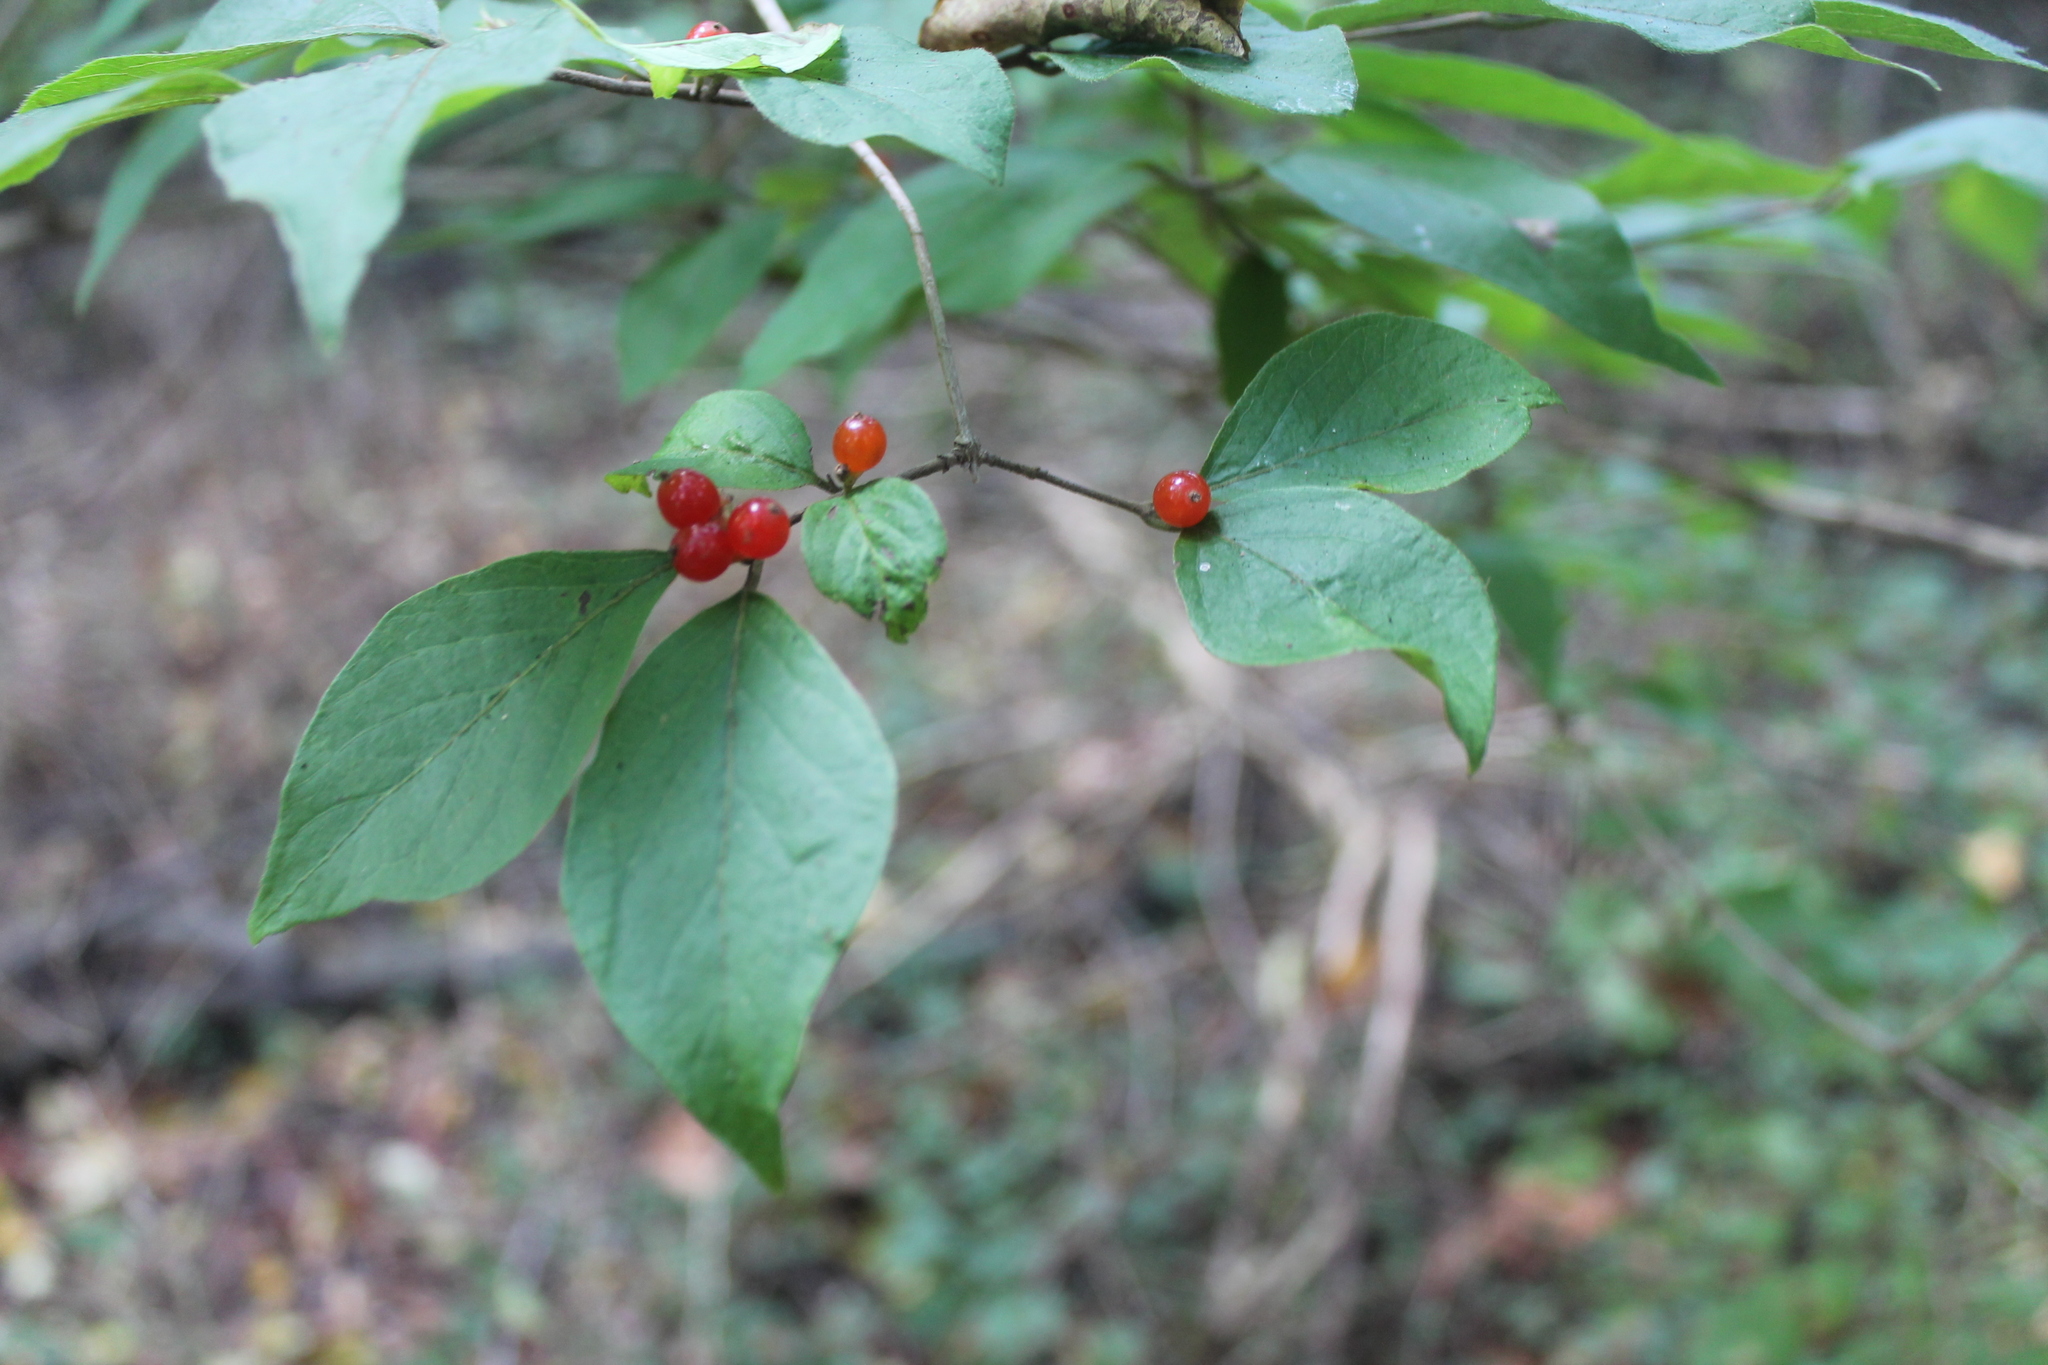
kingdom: Plantae
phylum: Tracheophyta
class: Magnoliopsida
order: Dipsacales
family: Caprifoliaceae
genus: Lonicera
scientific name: Lonicera maackii
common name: Amur honeysuckle
